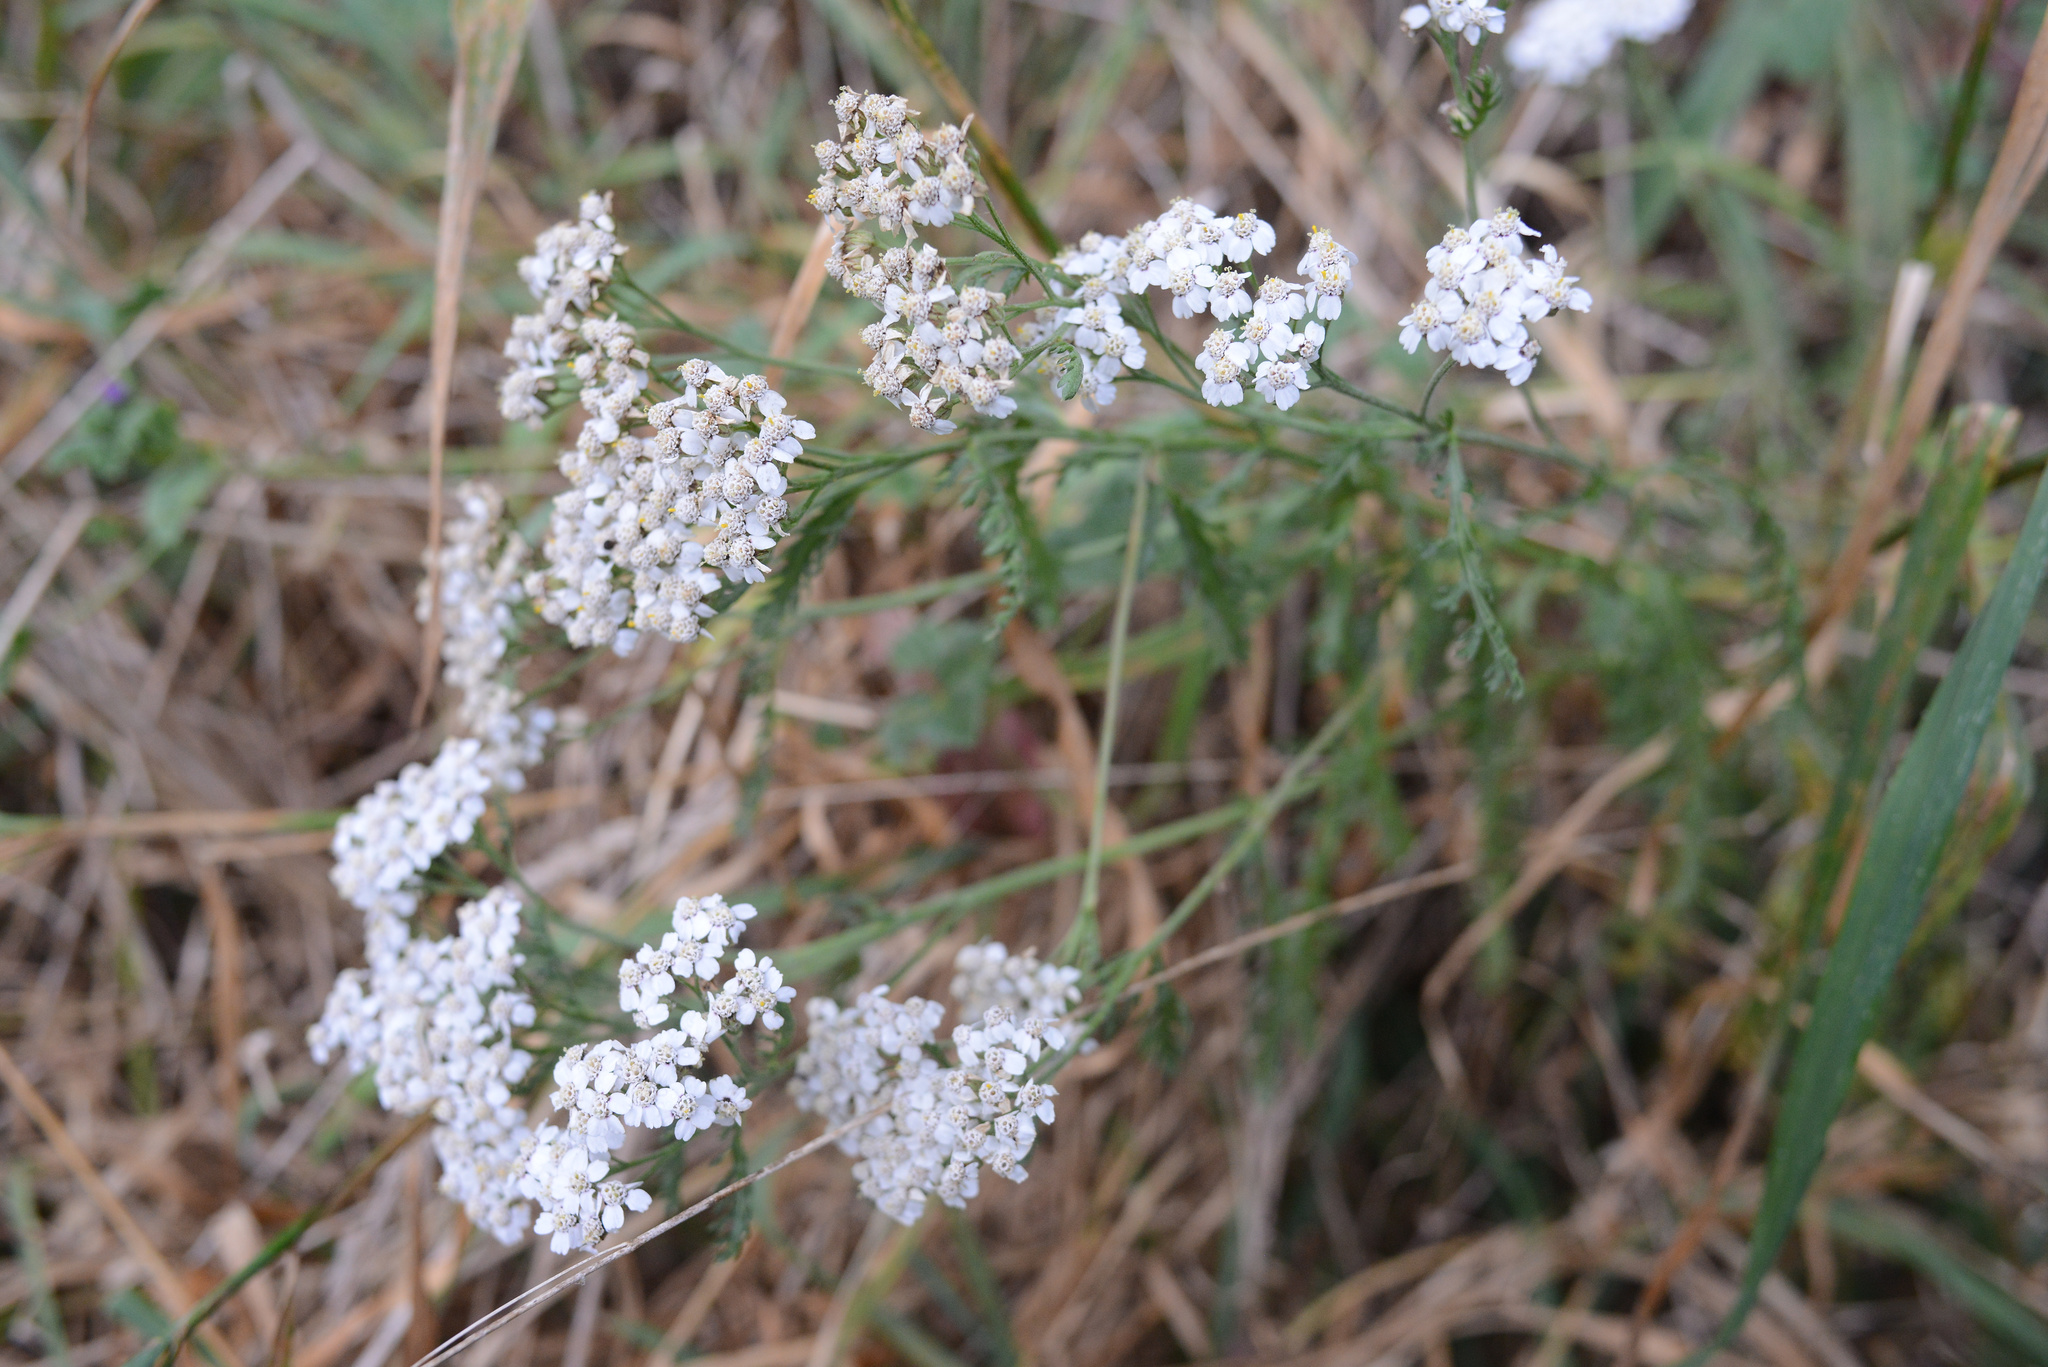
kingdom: Plantae
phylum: Tracheophyta
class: Magnoliopsida
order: Asterales
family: Asteraceae
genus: Achillea
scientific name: Achillea millefolium
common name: Yarrow
